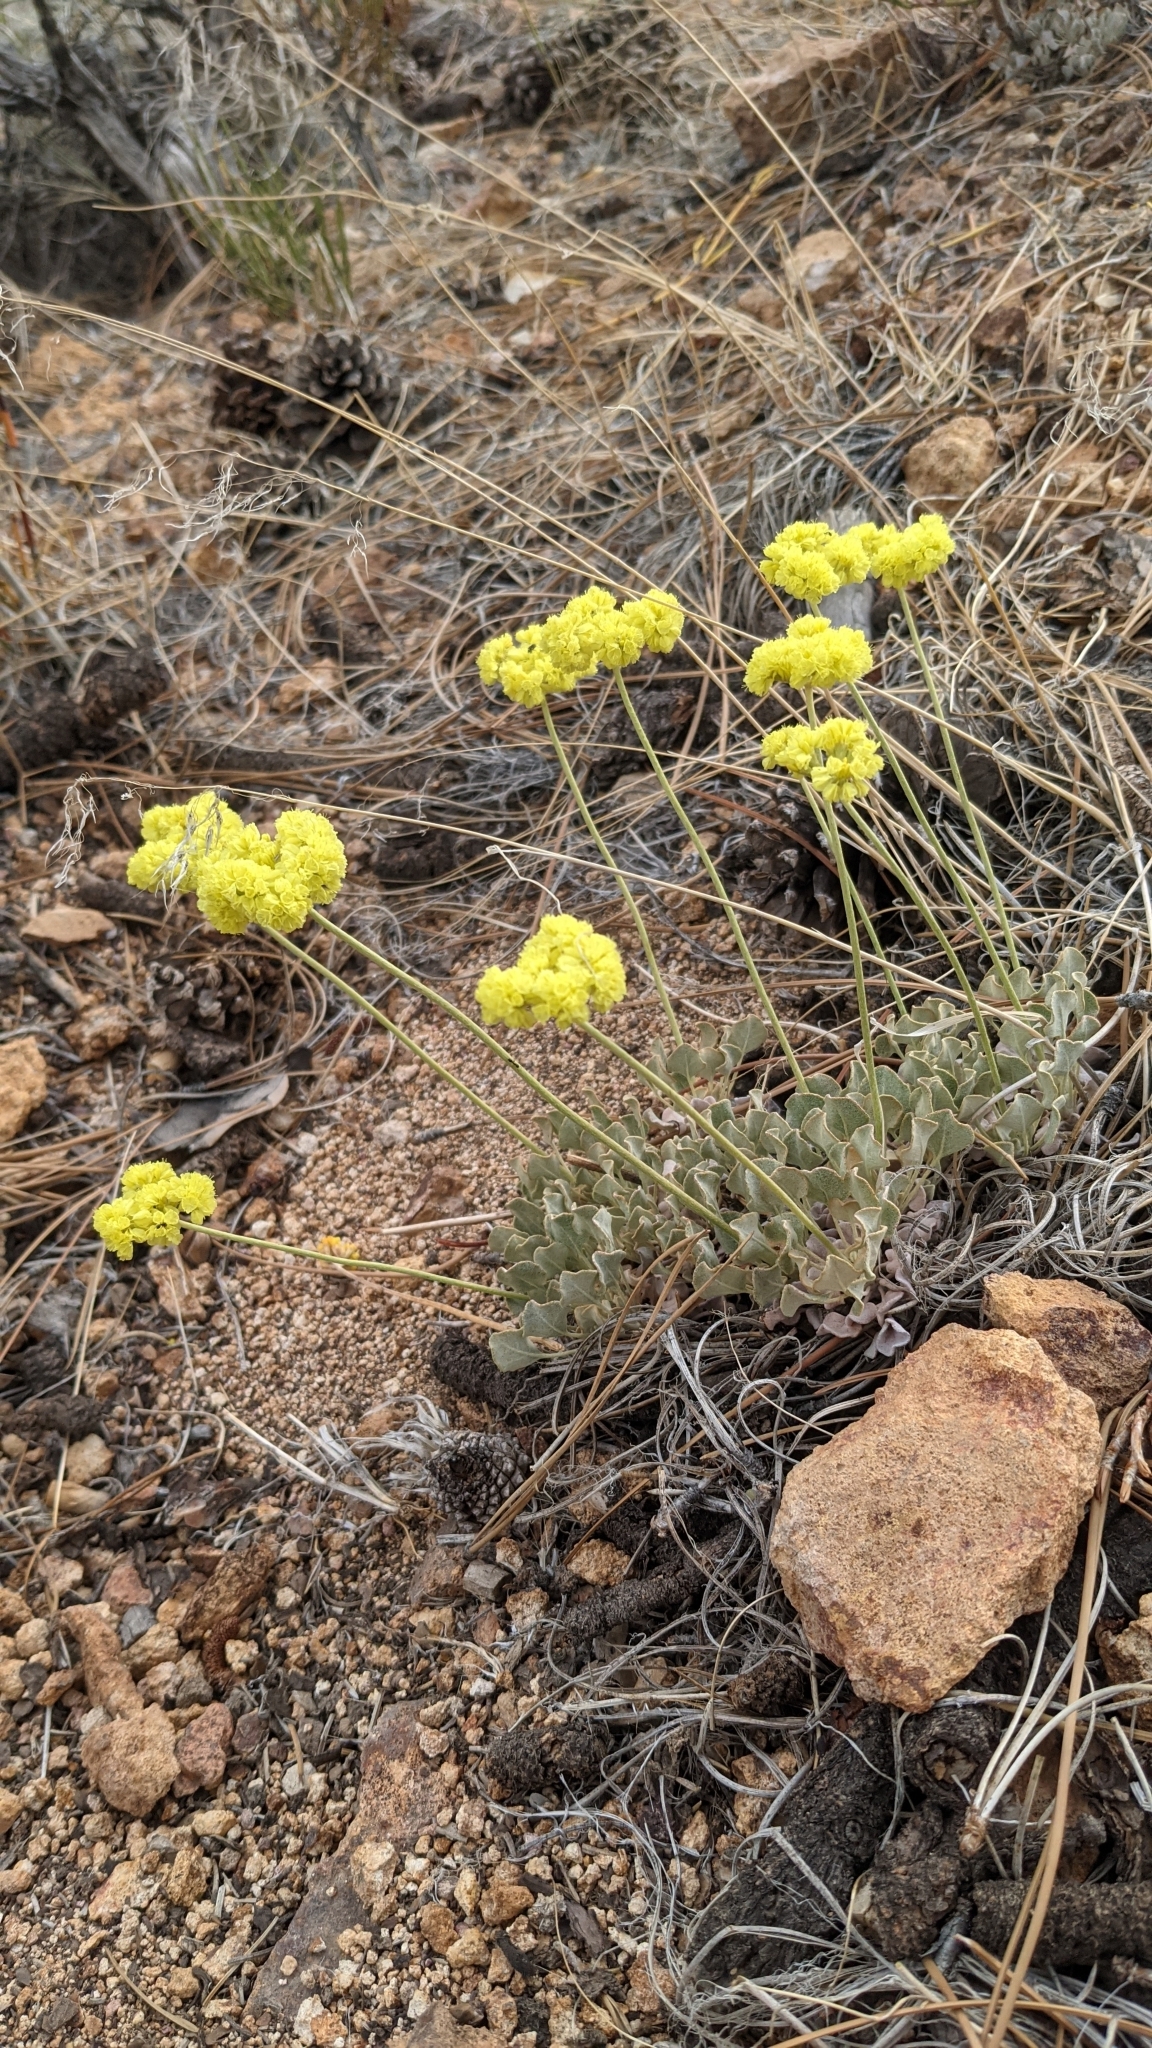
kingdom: Plantae
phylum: Tracheophyta
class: Magnoliopsida
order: Caryophyllales
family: Polygonaceae
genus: Eriogonum
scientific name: Eriogonum strictum
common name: Blue mountain buckwheat
